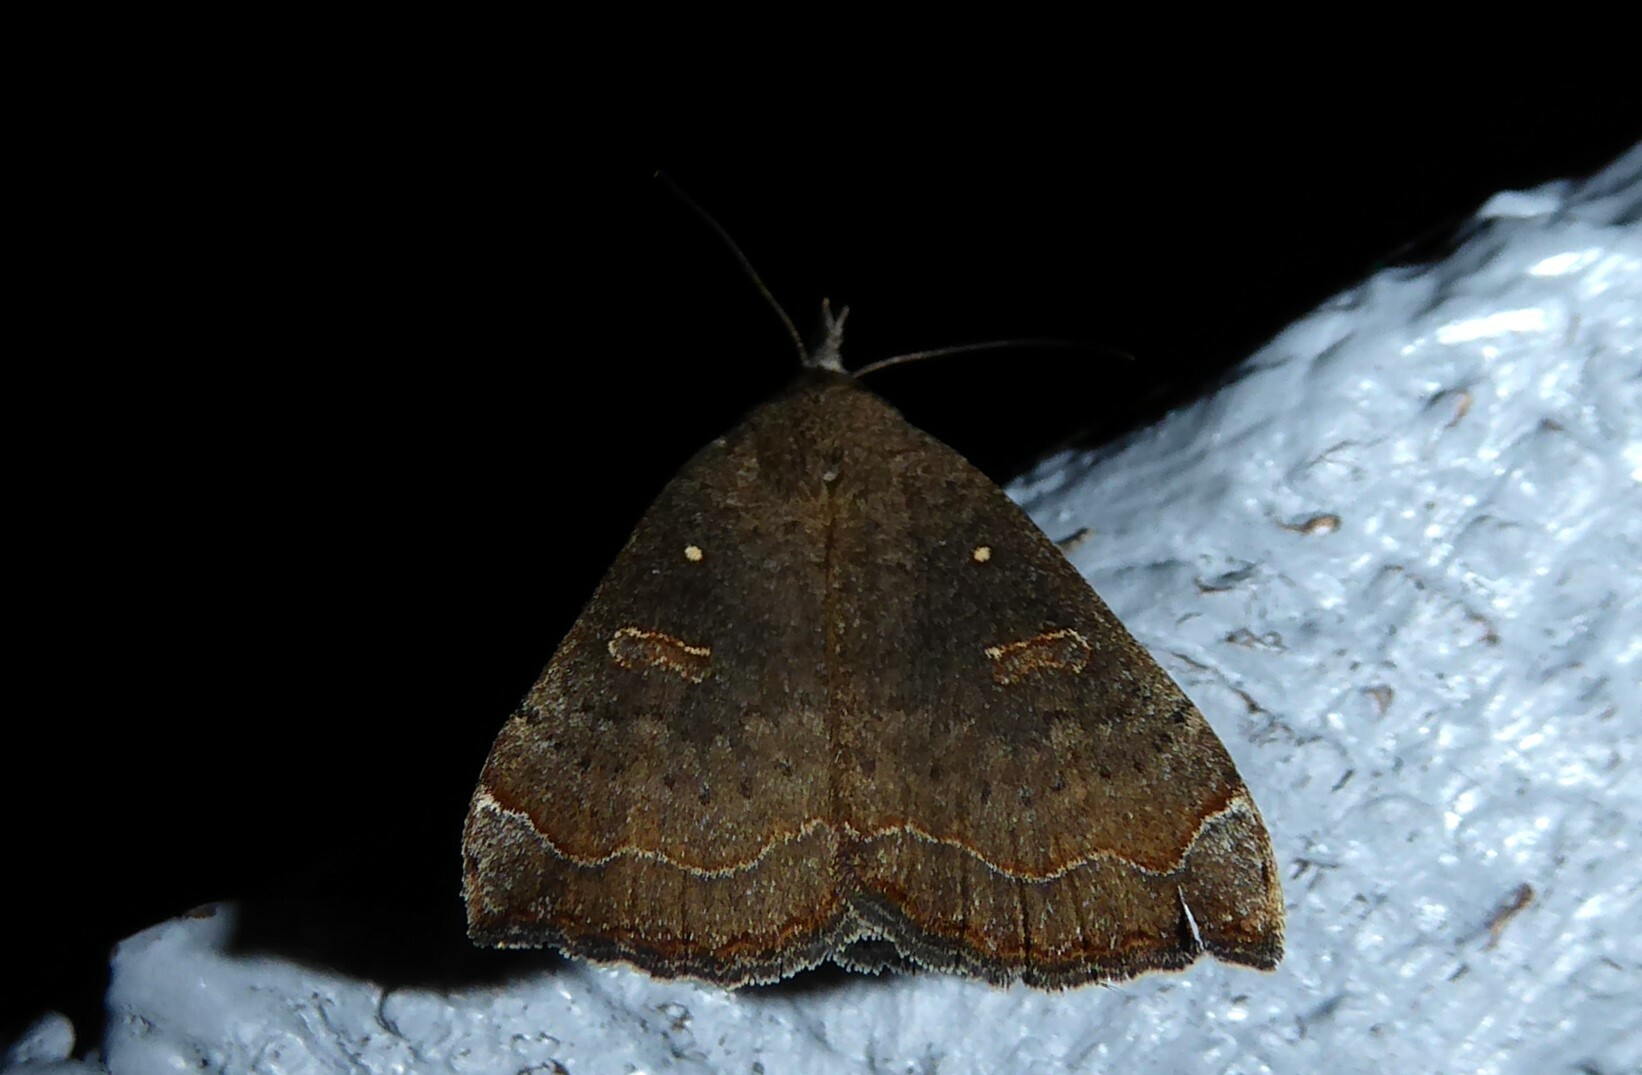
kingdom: Animalia
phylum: Arthropoda
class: Insecta
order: Lepidoptera
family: Erebidae
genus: Rhapsa
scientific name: Rhapsa scotosialis
